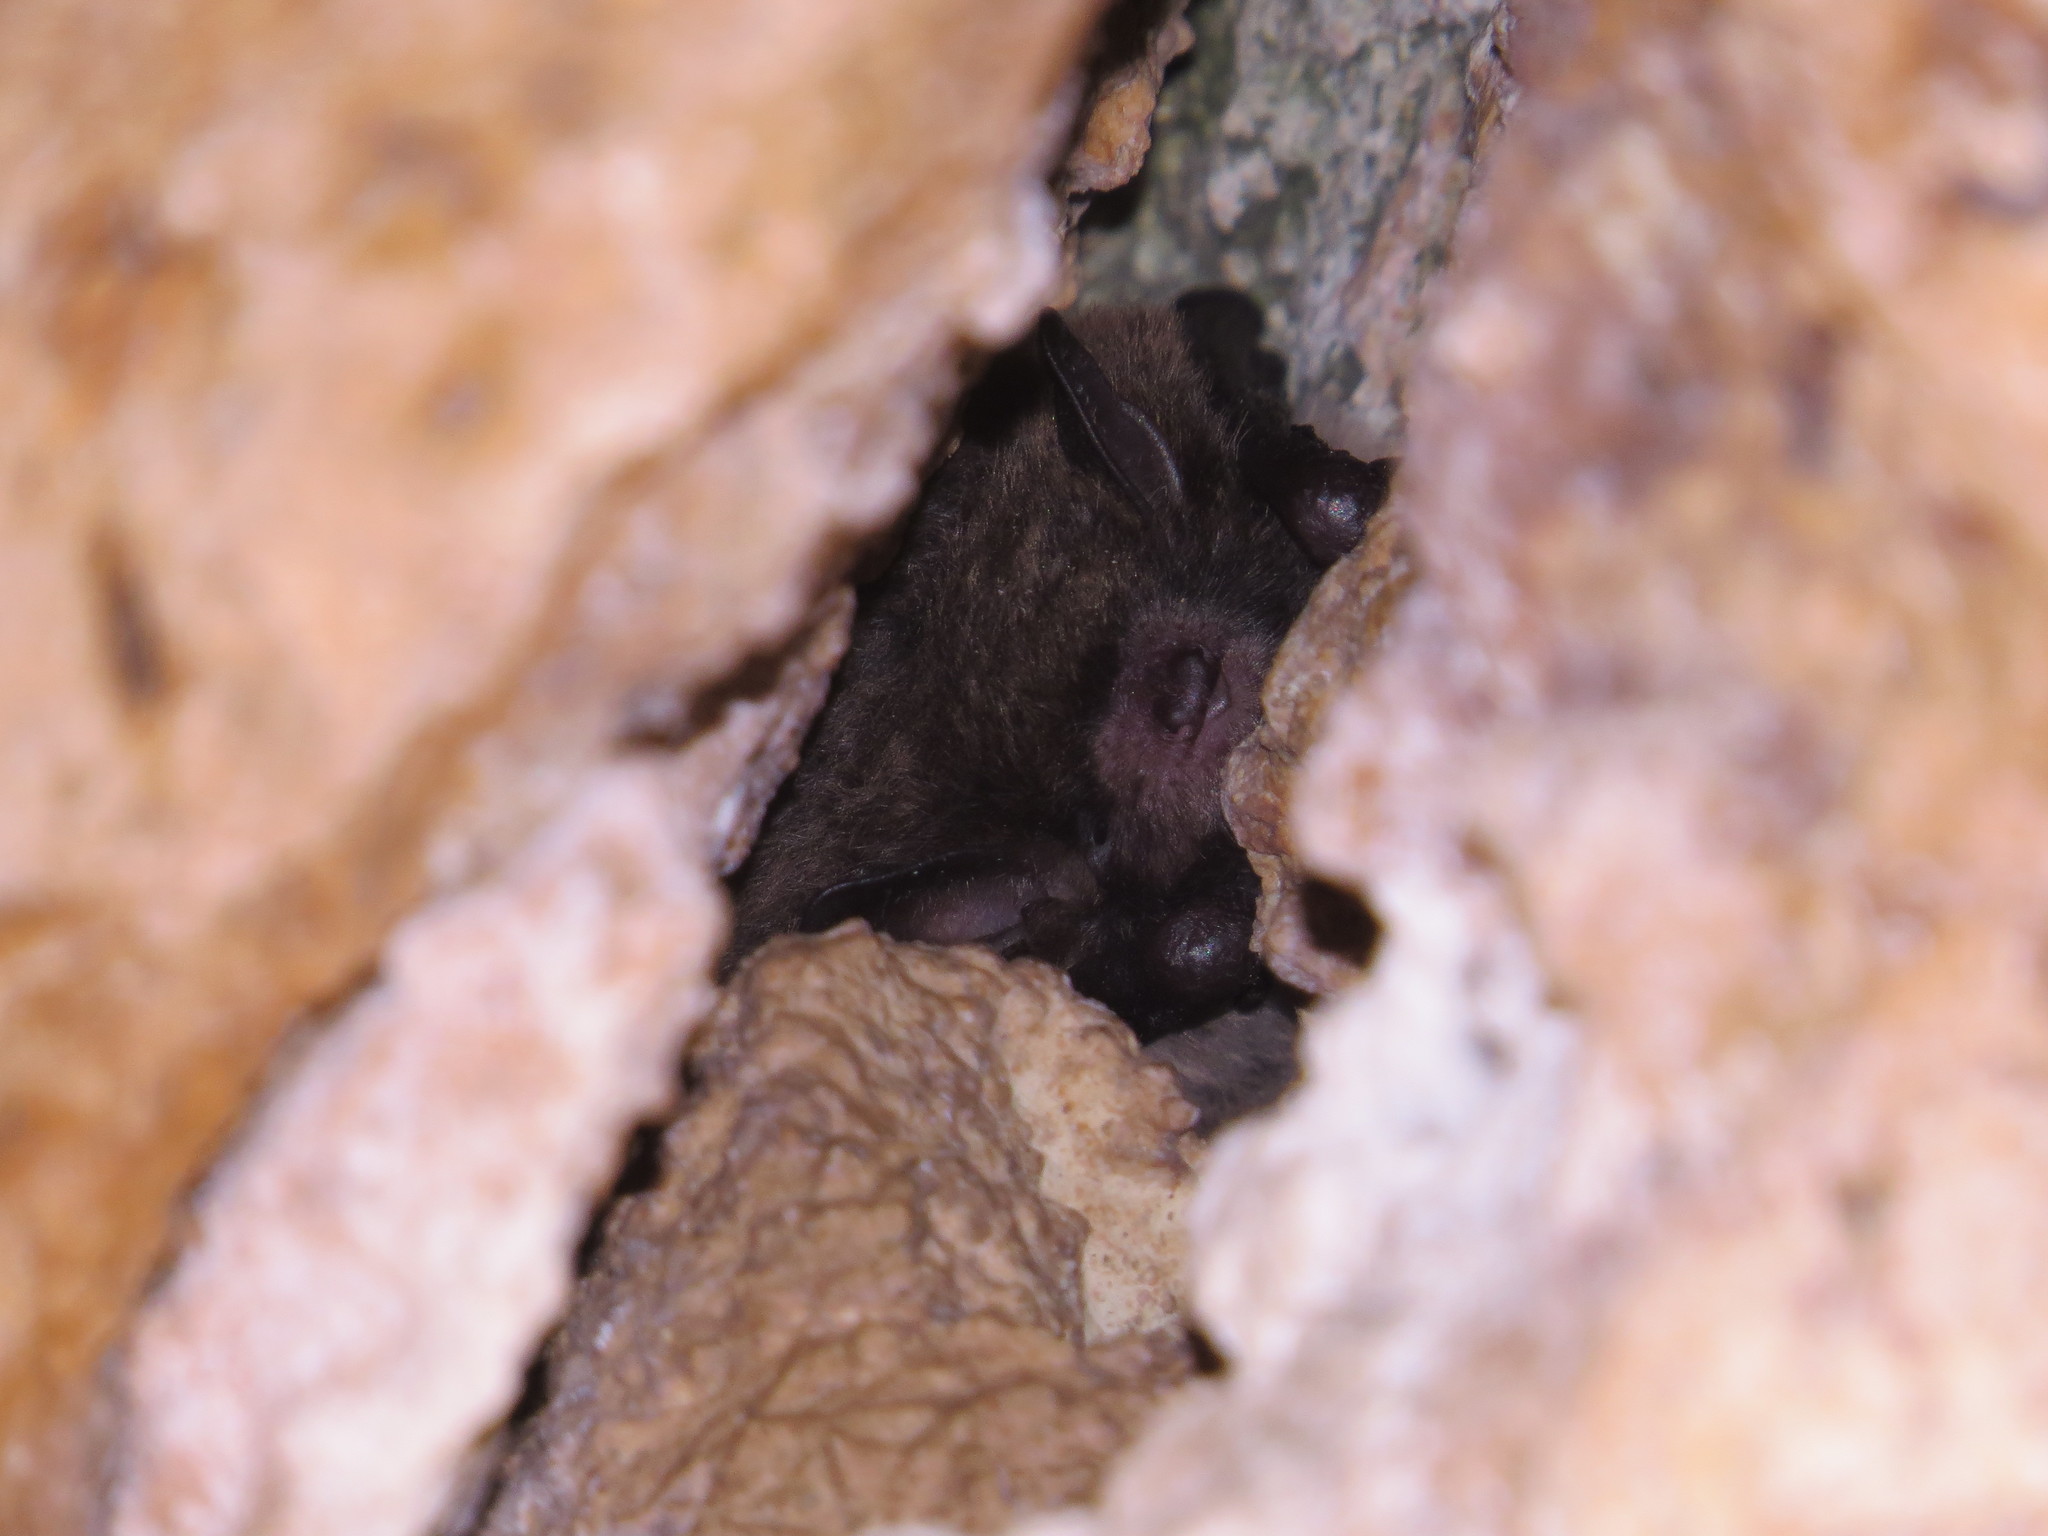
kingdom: Animalia
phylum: Chordata
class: Mammalia
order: Chiroptera
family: Vespertilionidae
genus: Myotis
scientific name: Myotis daubentonii
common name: Daubenton's myotis
